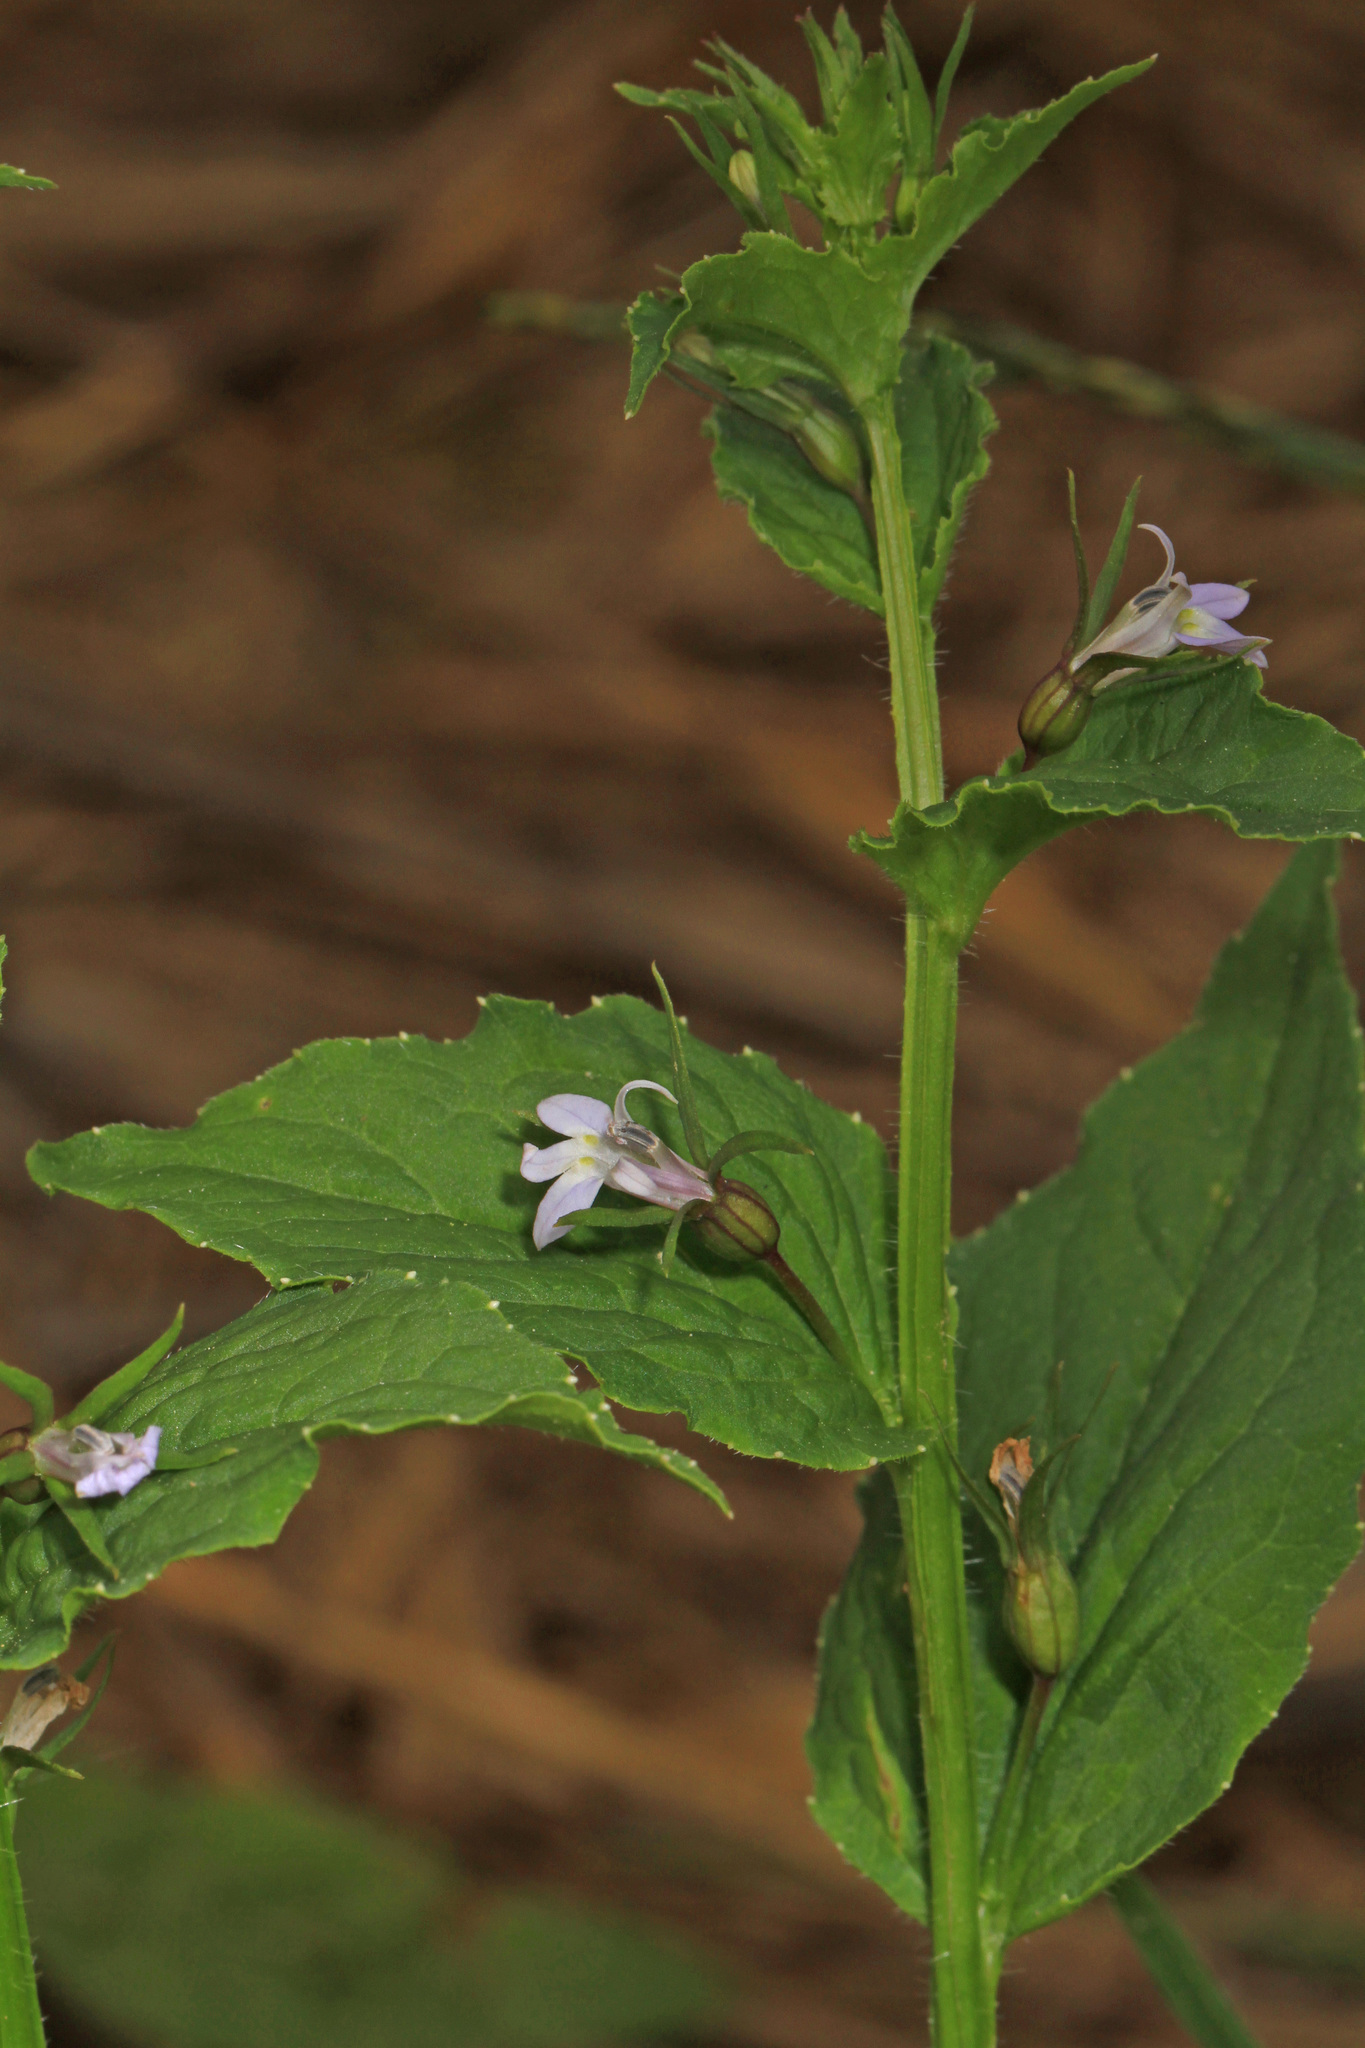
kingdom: Plantae
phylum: Tracheophyta
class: Magnoliopsida
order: Asterales
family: Campanulaceae
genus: Lobelia
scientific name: Lobelia inflata
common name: Indian tobacco
